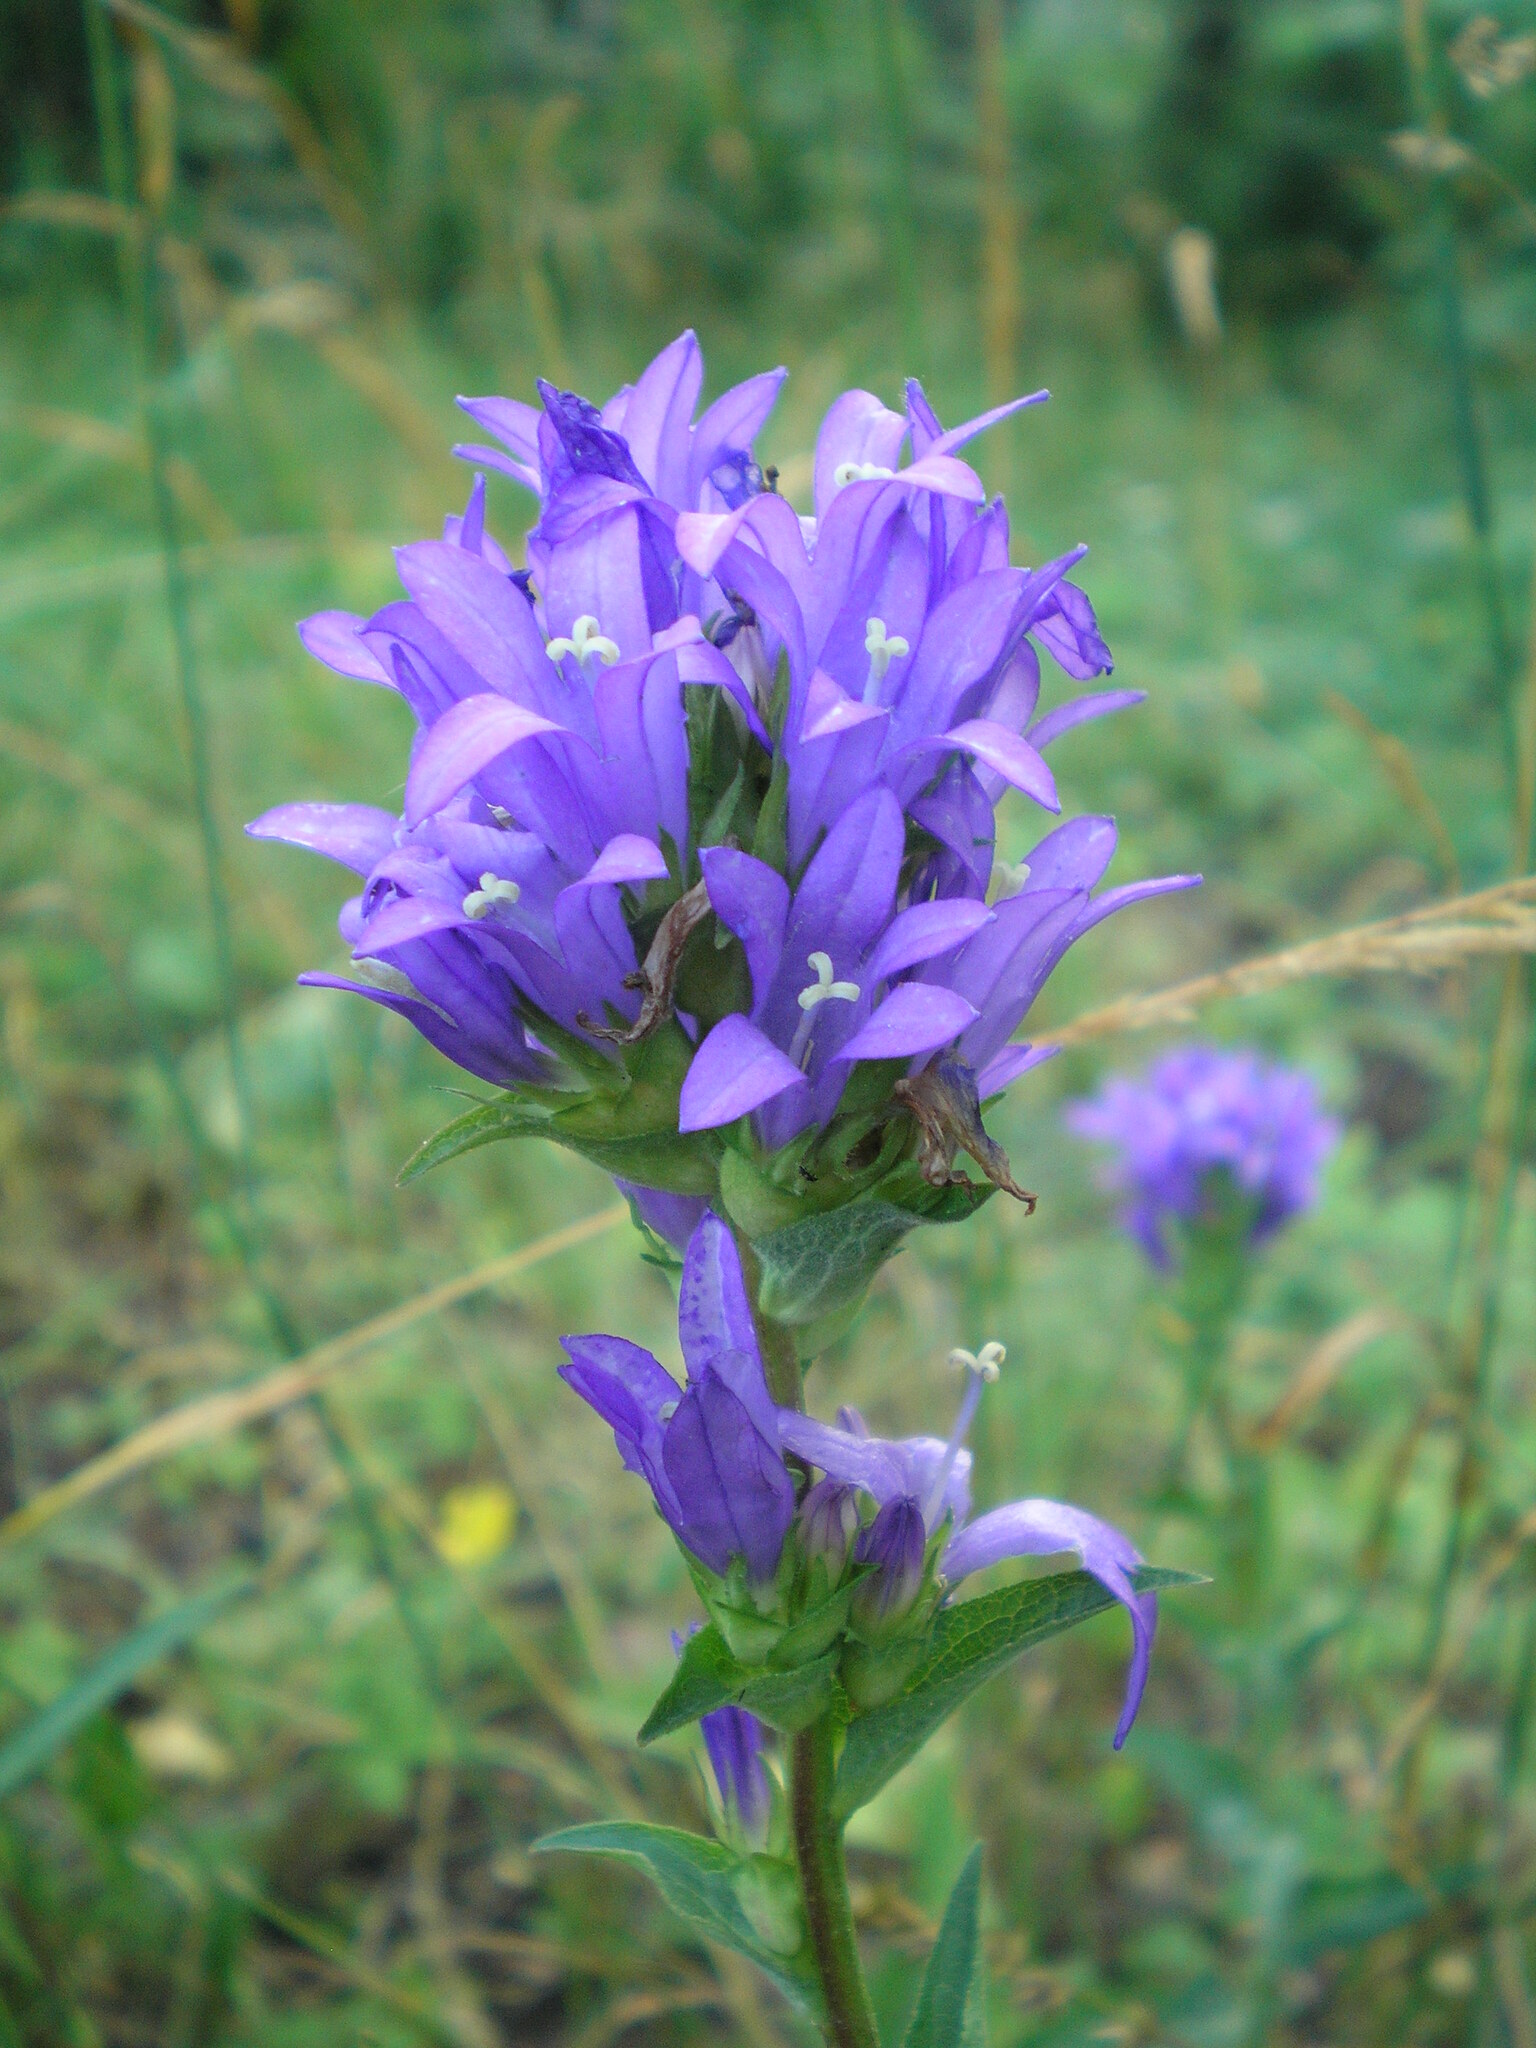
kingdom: Plantae
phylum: Tracheophyta
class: Magnoliopsida
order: Asterales
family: Campanulaceae
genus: Campanula
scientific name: Campanula glomerata
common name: Clustered bellflower
